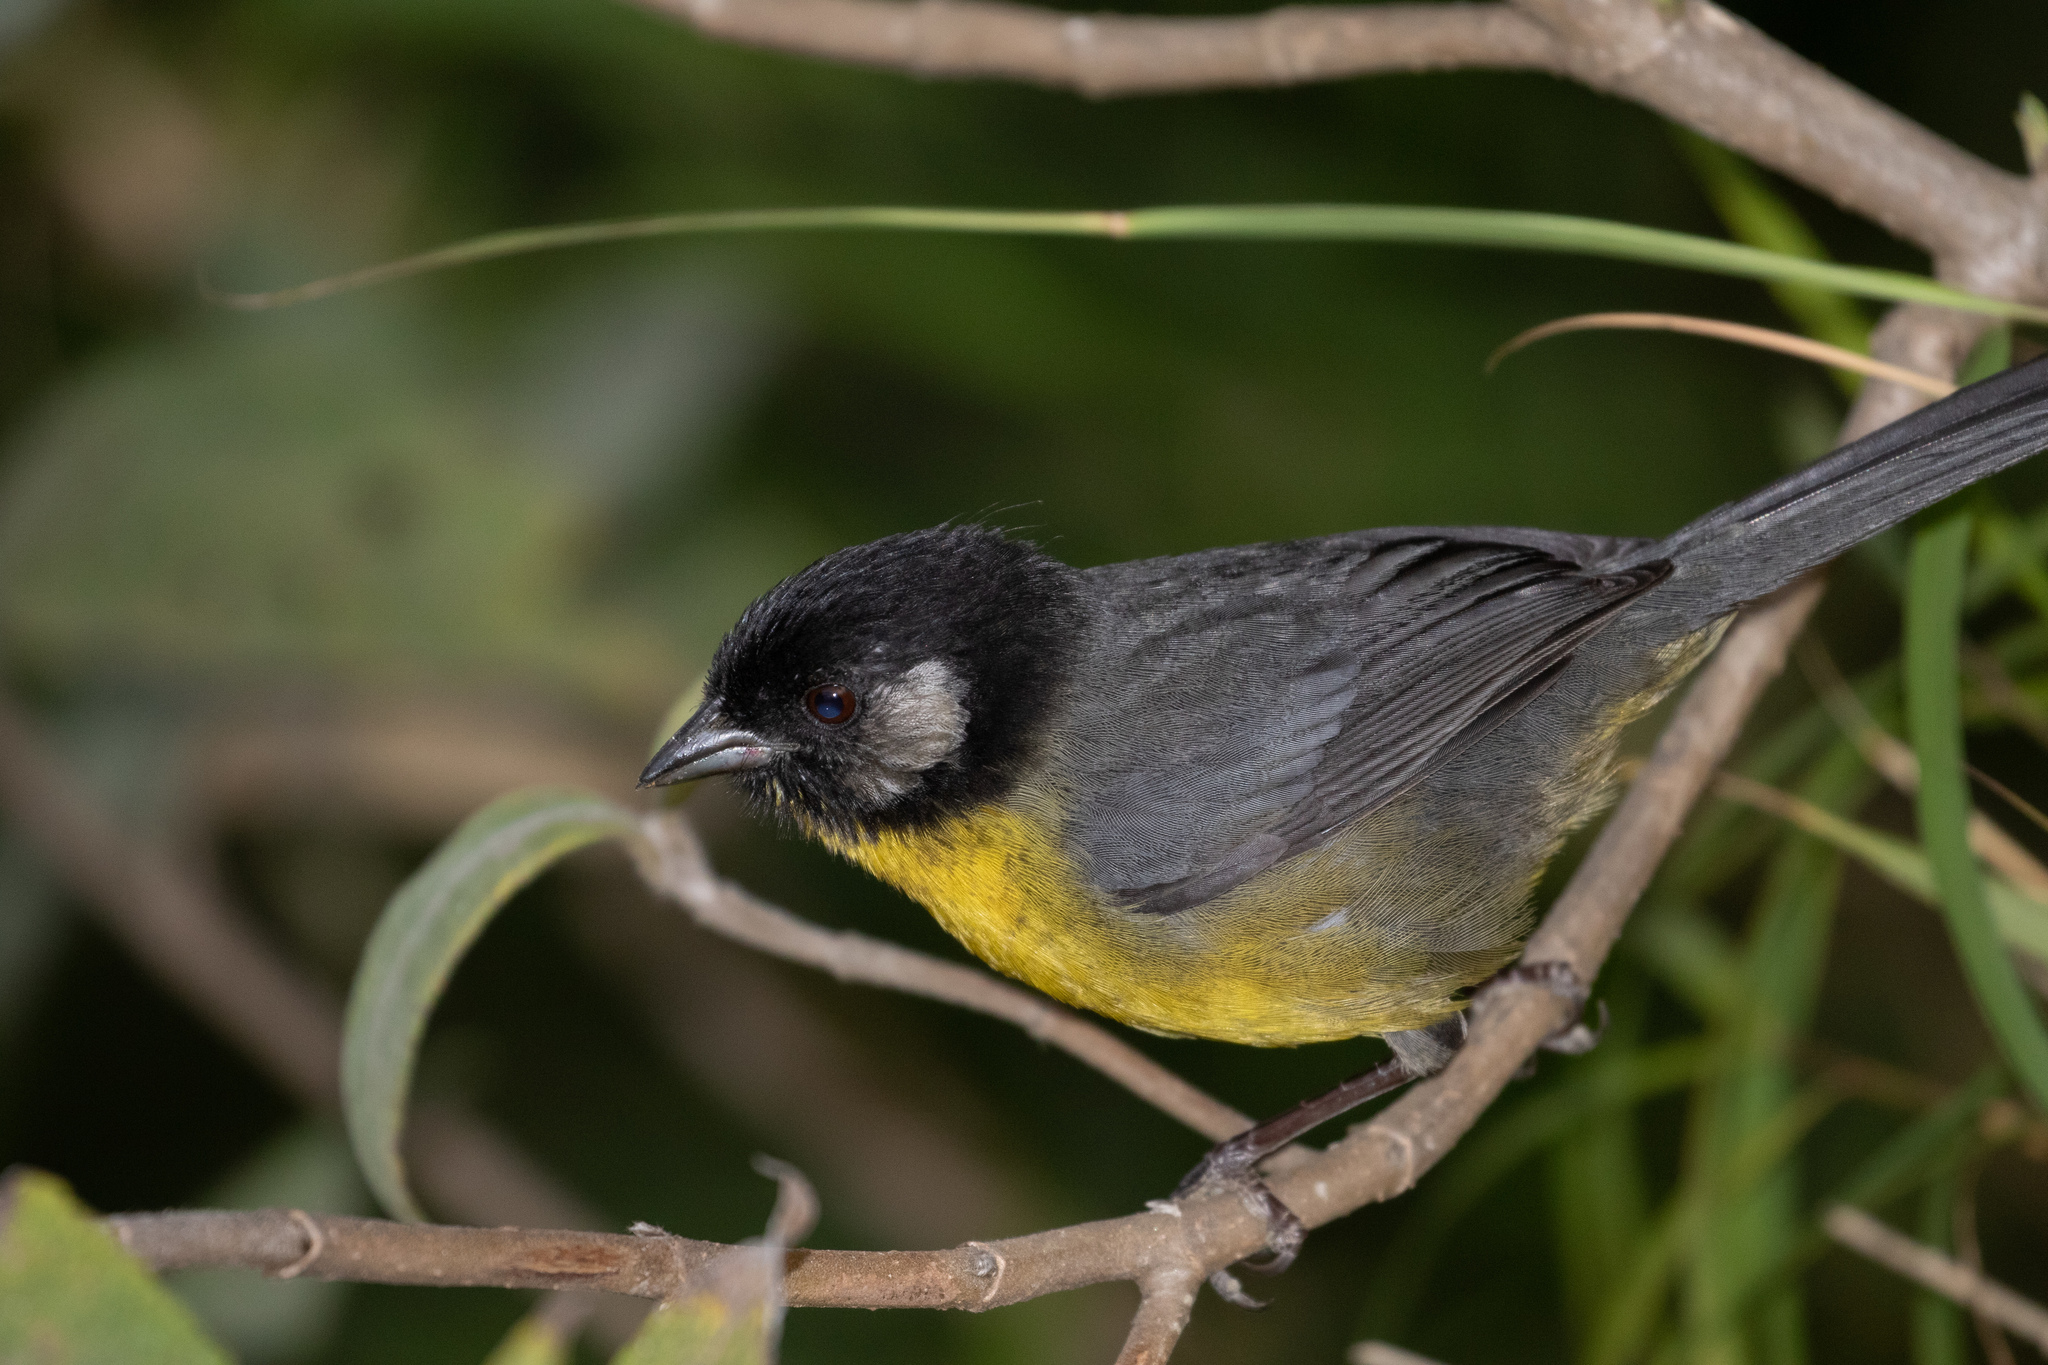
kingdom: Animalia
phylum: Chordata
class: Aves
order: Passeriformes
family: Passerellidae
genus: Atlapetes
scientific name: Atlapetes melanocephalus
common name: Santa marta brush-finch
